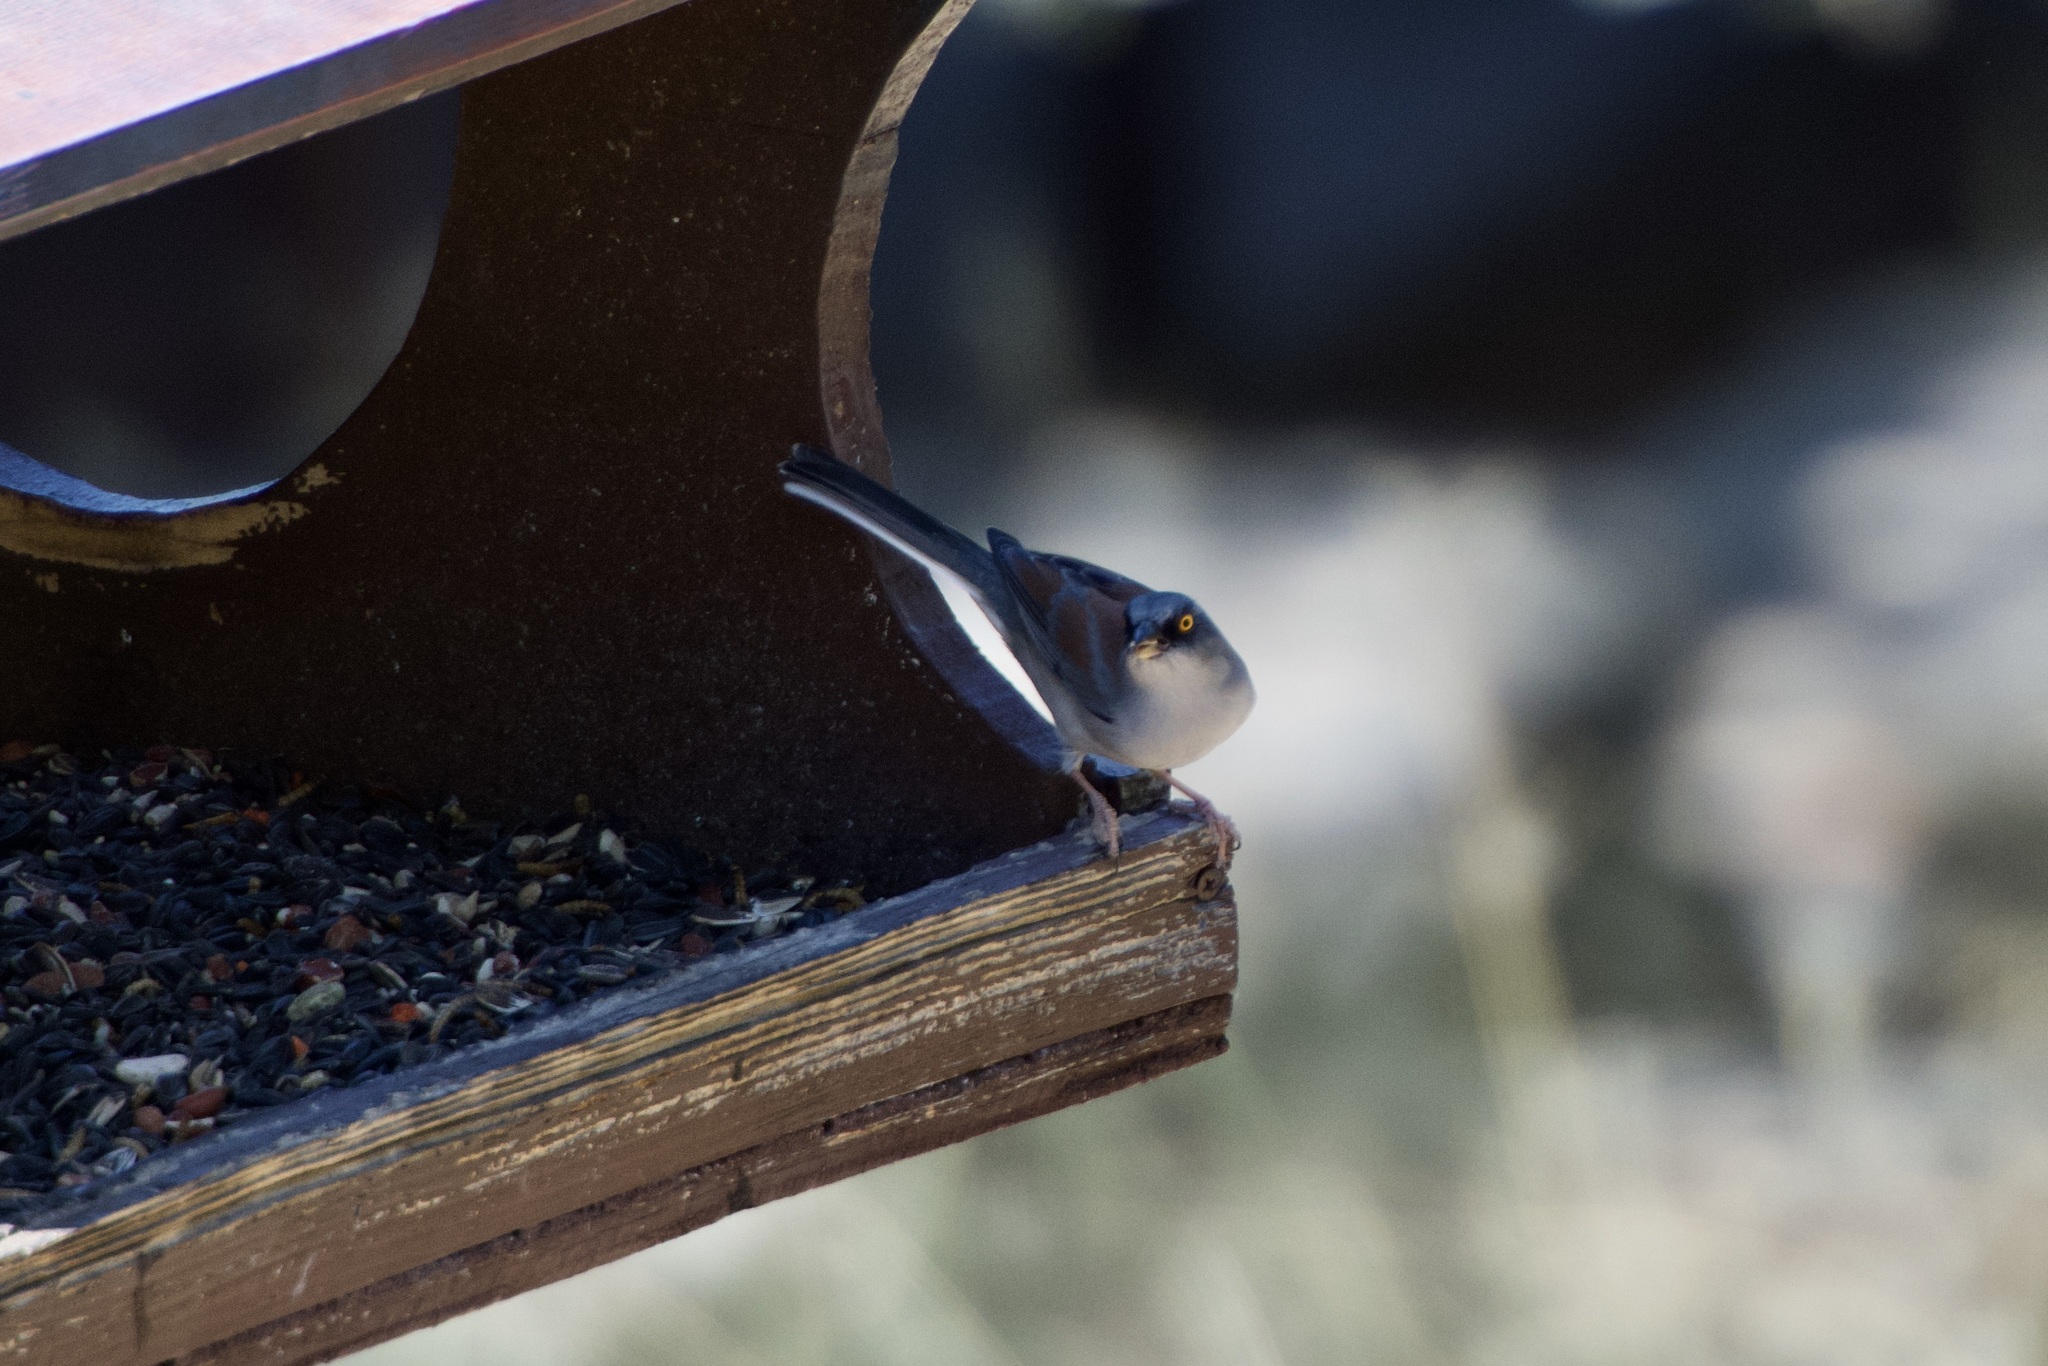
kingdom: Animalia
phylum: Chordata
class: Aves
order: Passeriformes
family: Passerellidae
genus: Junco
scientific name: Junco phaeonotus
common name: Yellow-eyed junco
